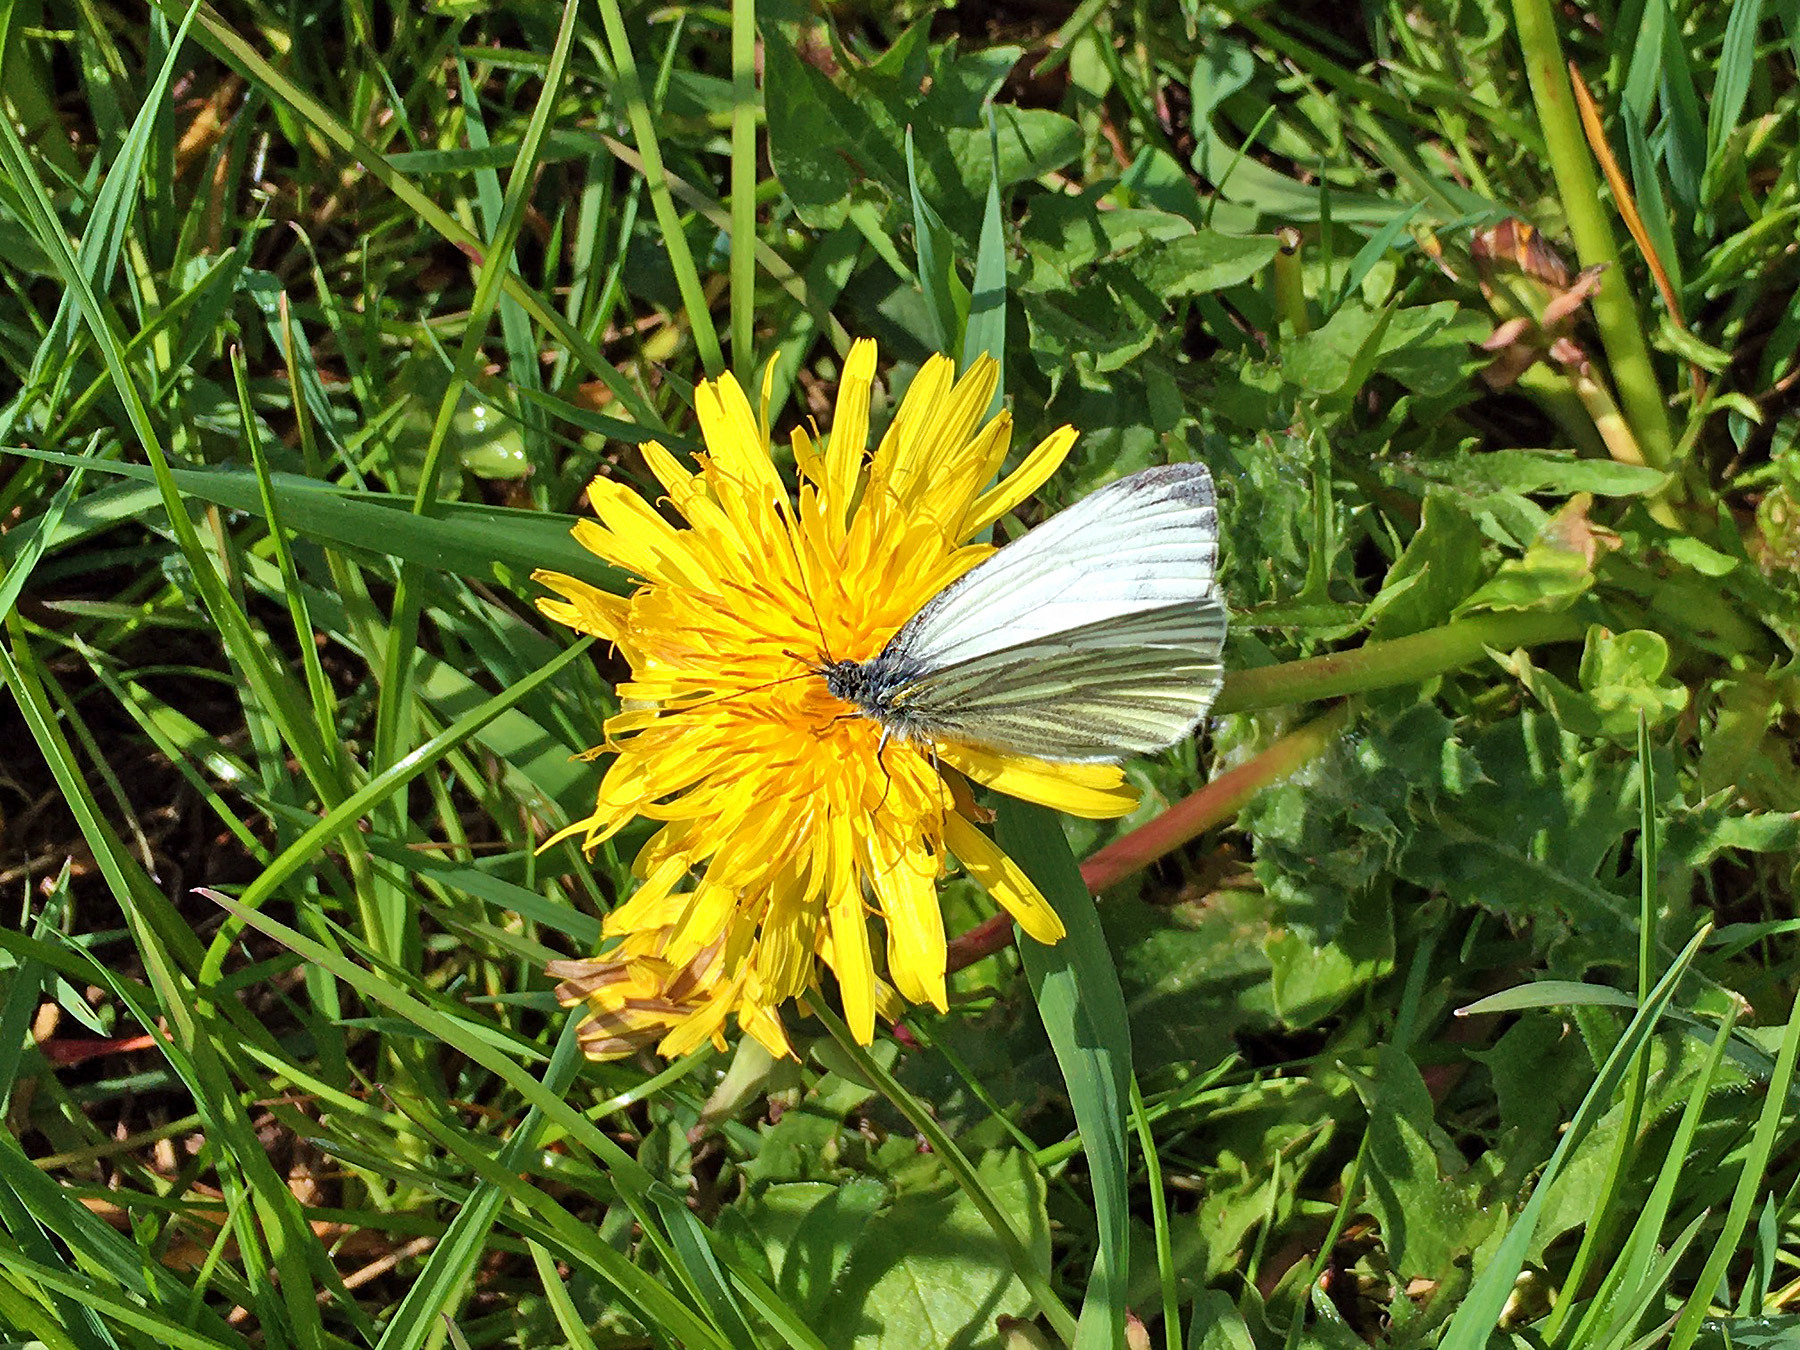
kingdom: Animalia
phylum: Arthropoda
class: Insecta
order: Lepidoptera
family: Pieridae
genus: Pieris
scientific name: Pieris napi
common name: Green-veined white
